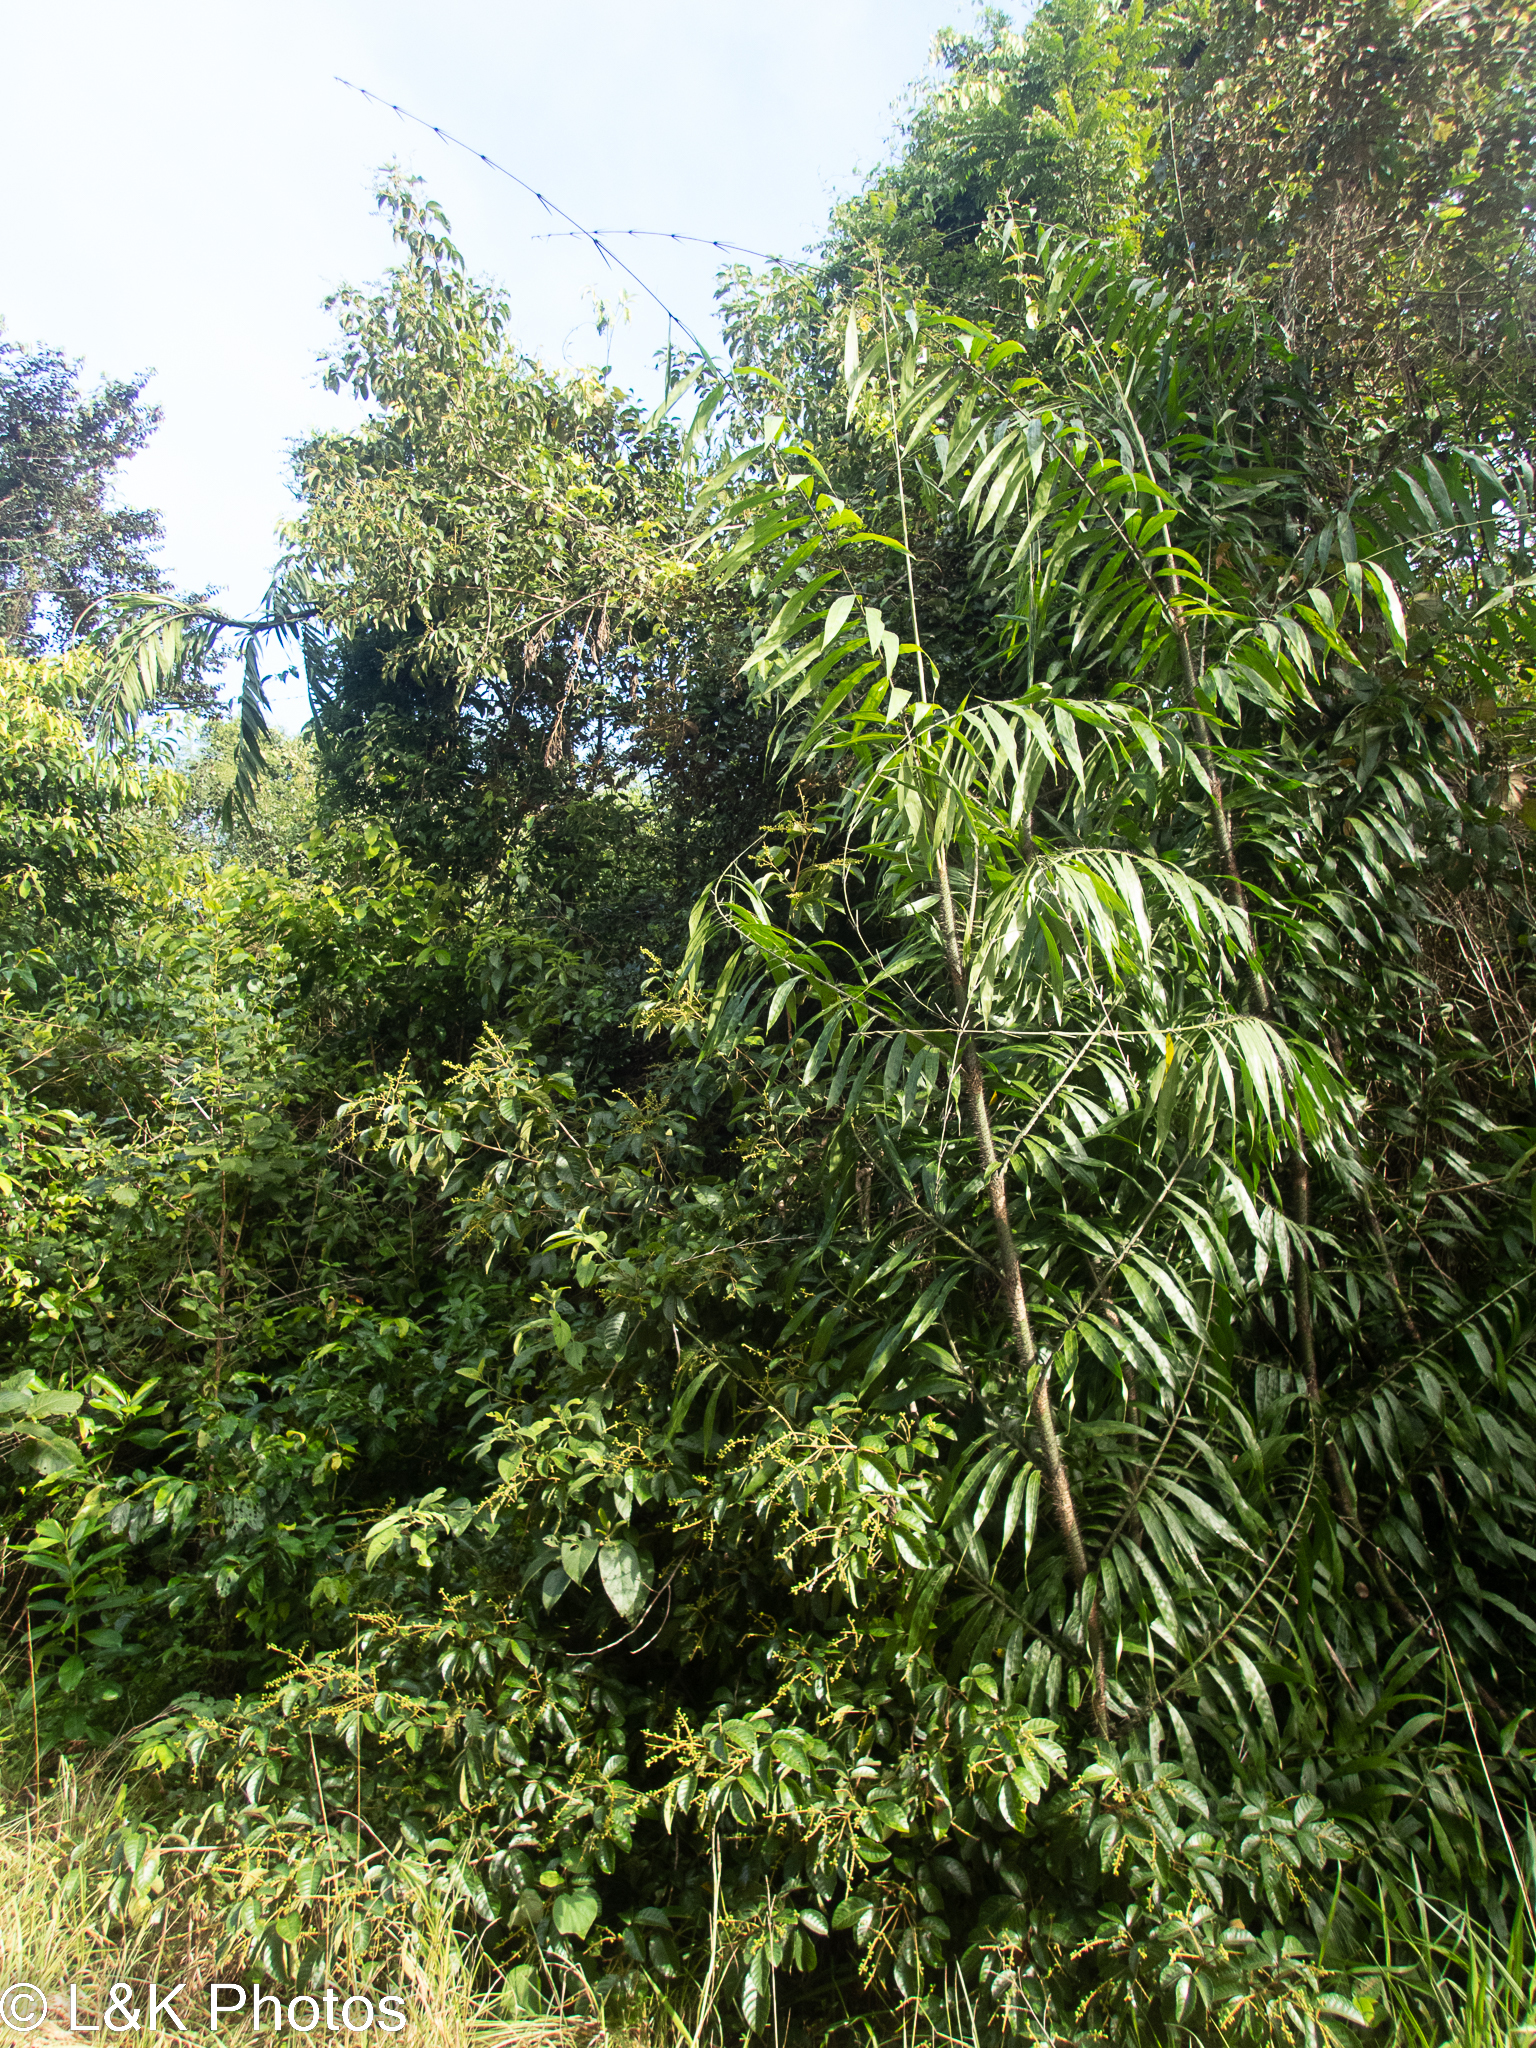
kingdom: Plantae
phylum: Tracheophyta
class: Liliopsida
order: Arecales
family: Arecaceae
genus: Desmoncus
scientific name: Desmoncus chinantlensis
